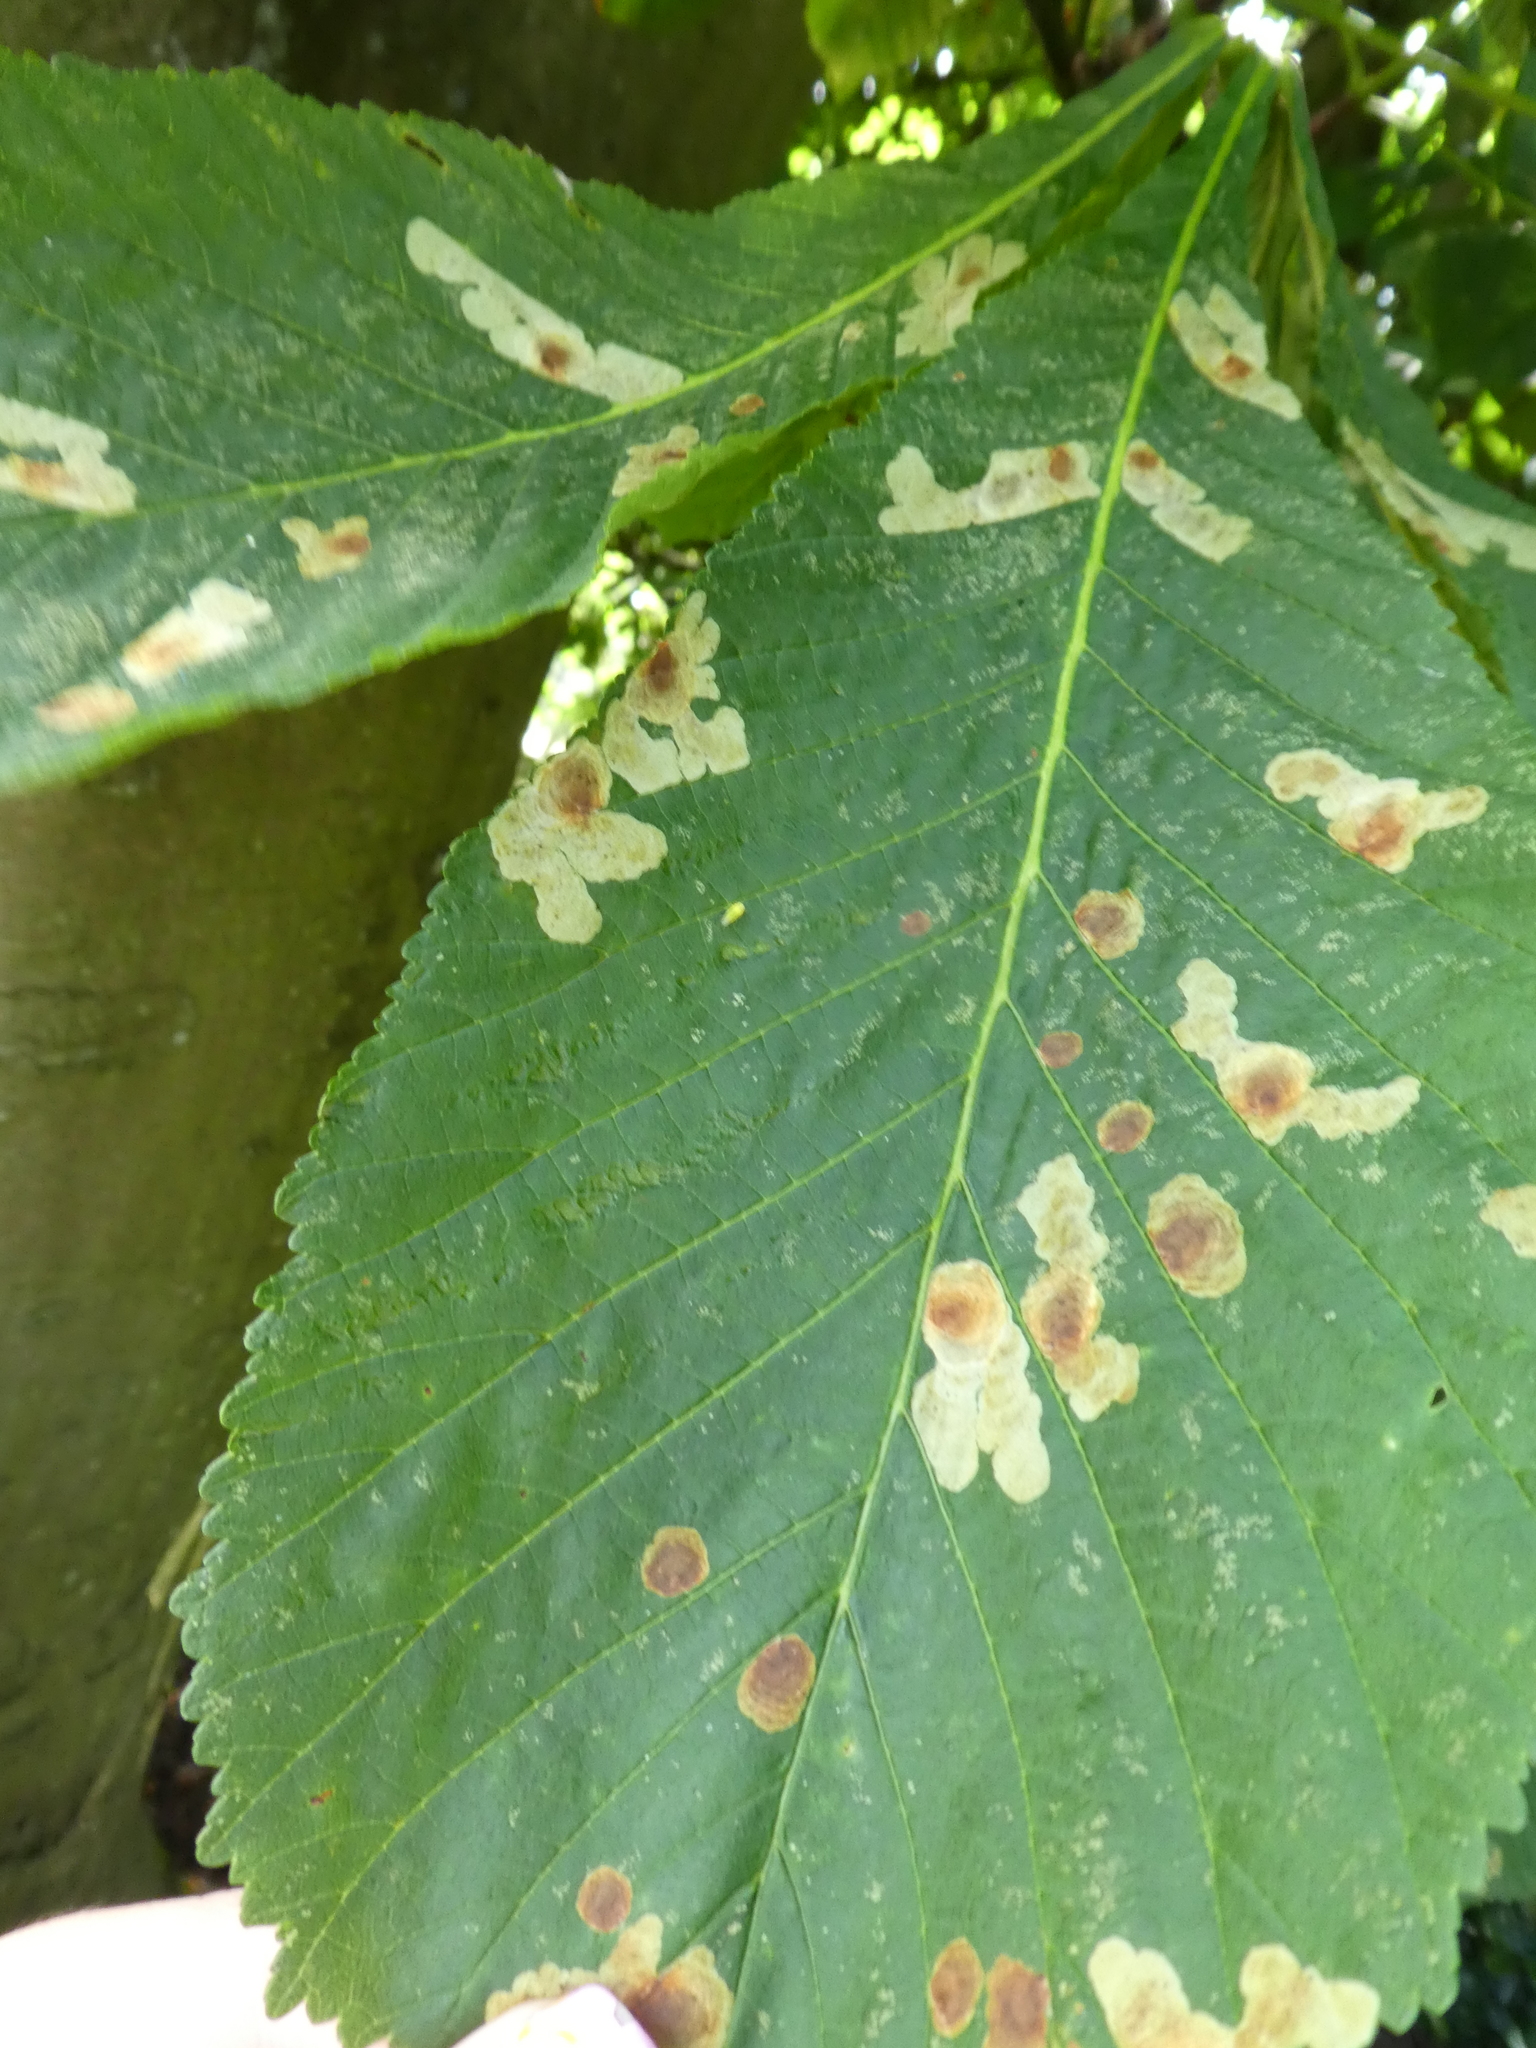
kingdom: Animalia
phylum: Arthropoda
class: Insecta
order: Lepidoptera
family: Gracillariidae
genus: Cameraria
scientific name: Cameraria ohridella
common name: Horse-chestnut leaf-miner
